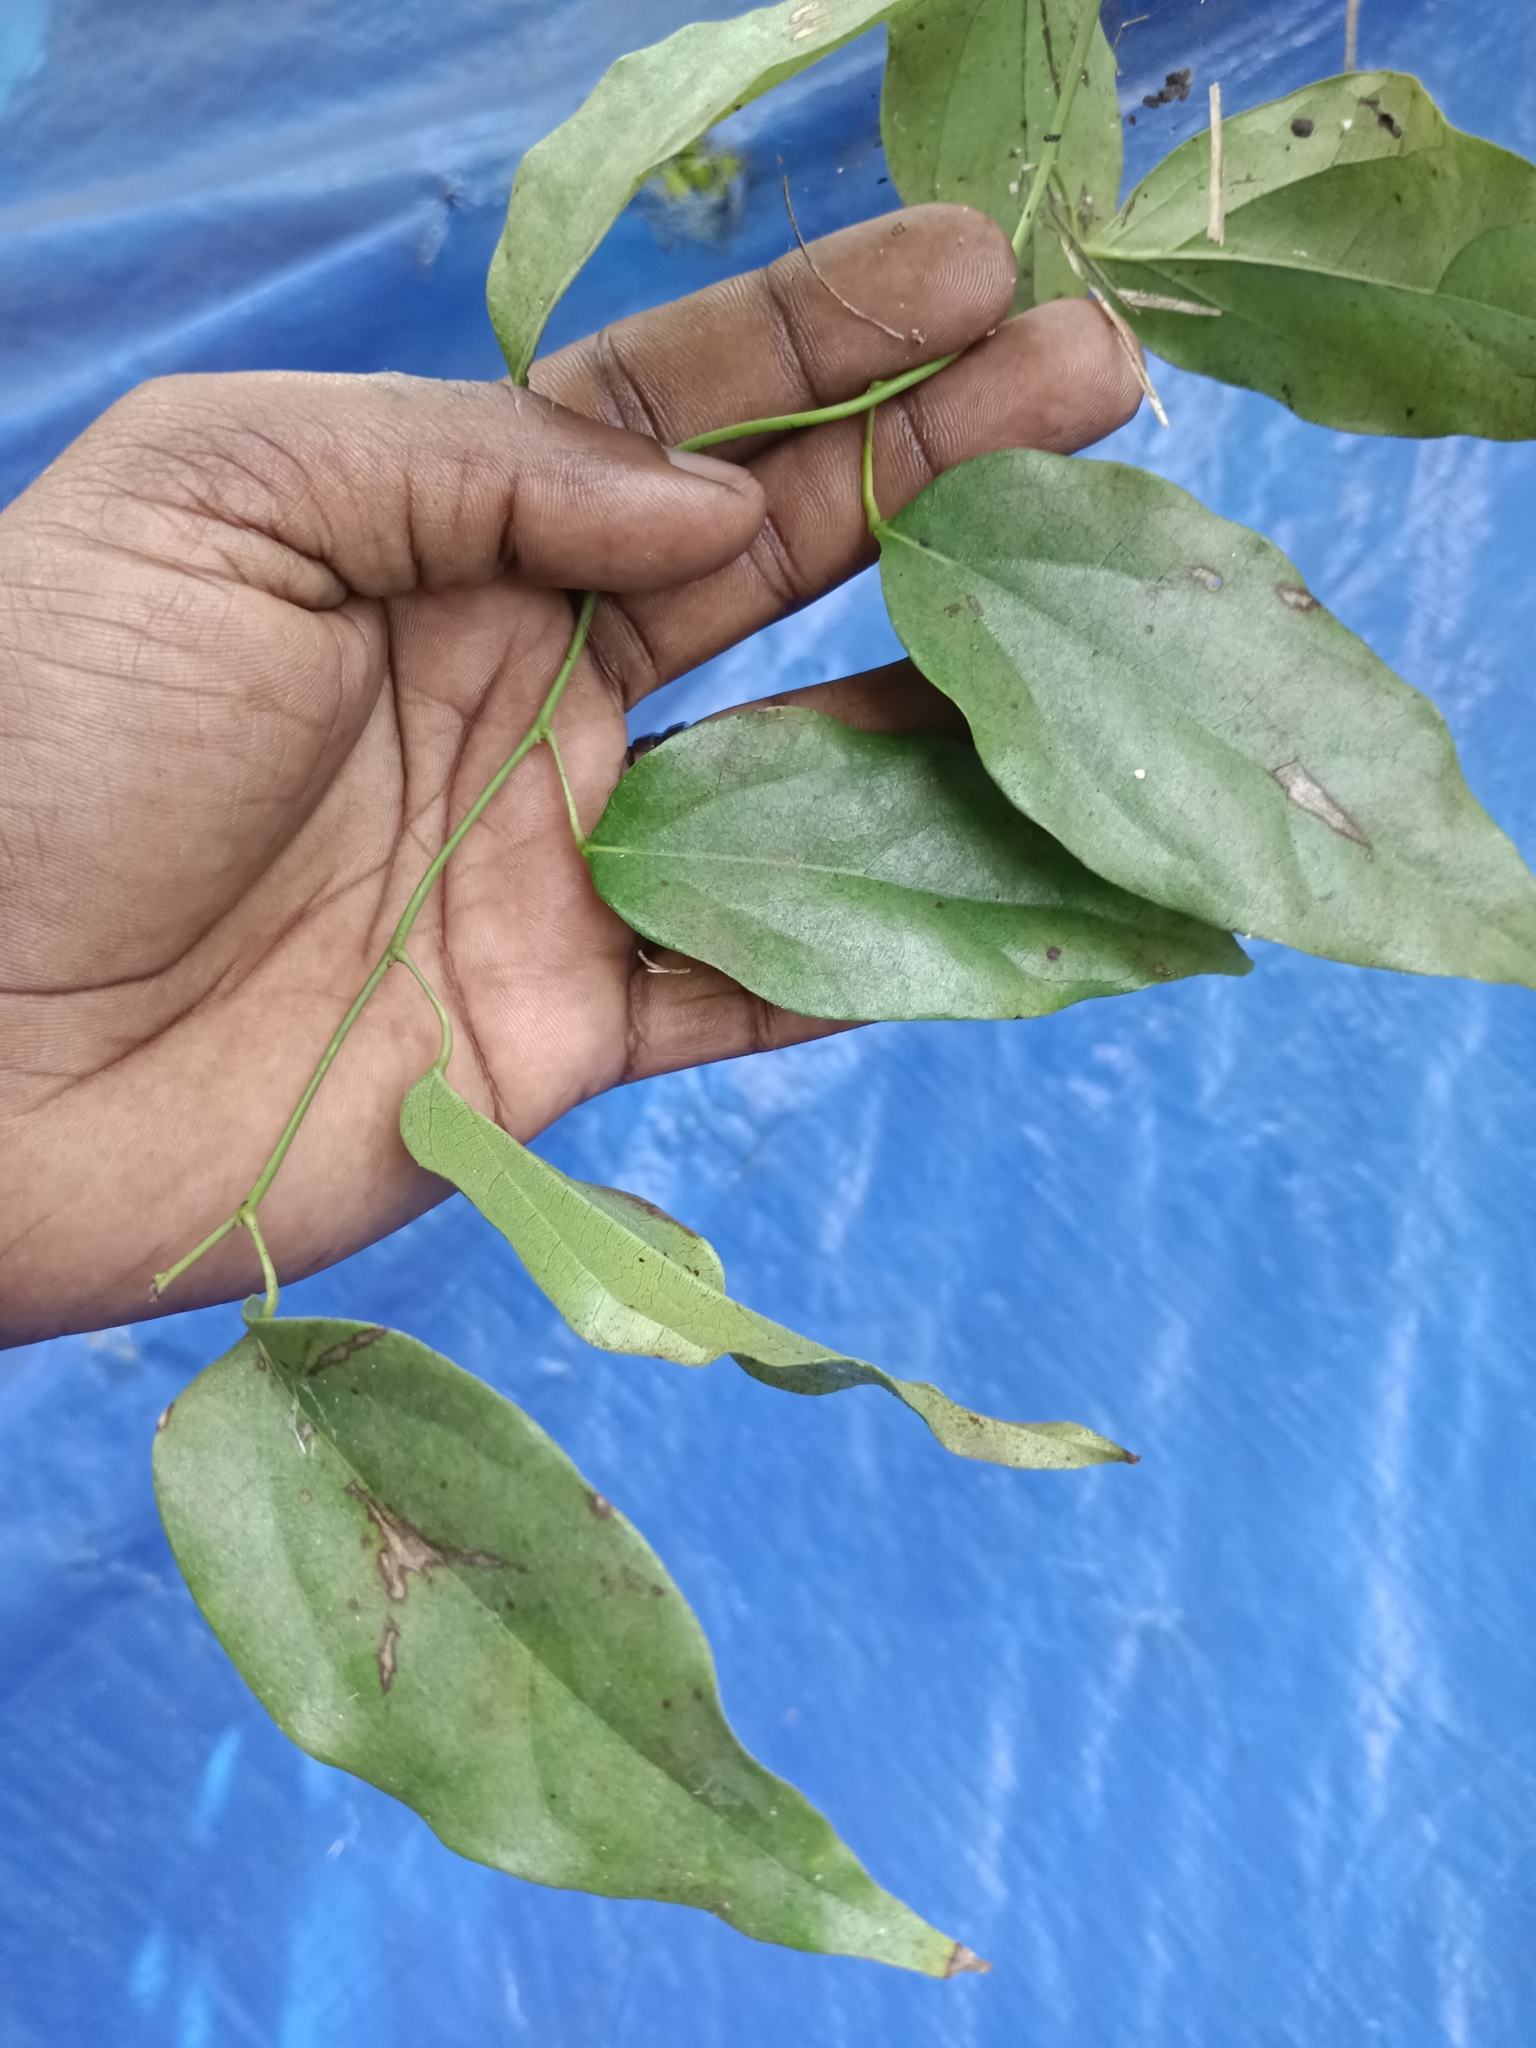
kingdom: Plantae
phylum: Tracheophyta
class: Magnoliopsida
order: Ranunculales
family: Menispermaceae
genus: Tiliacora
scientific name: Tiliacora acuminata
